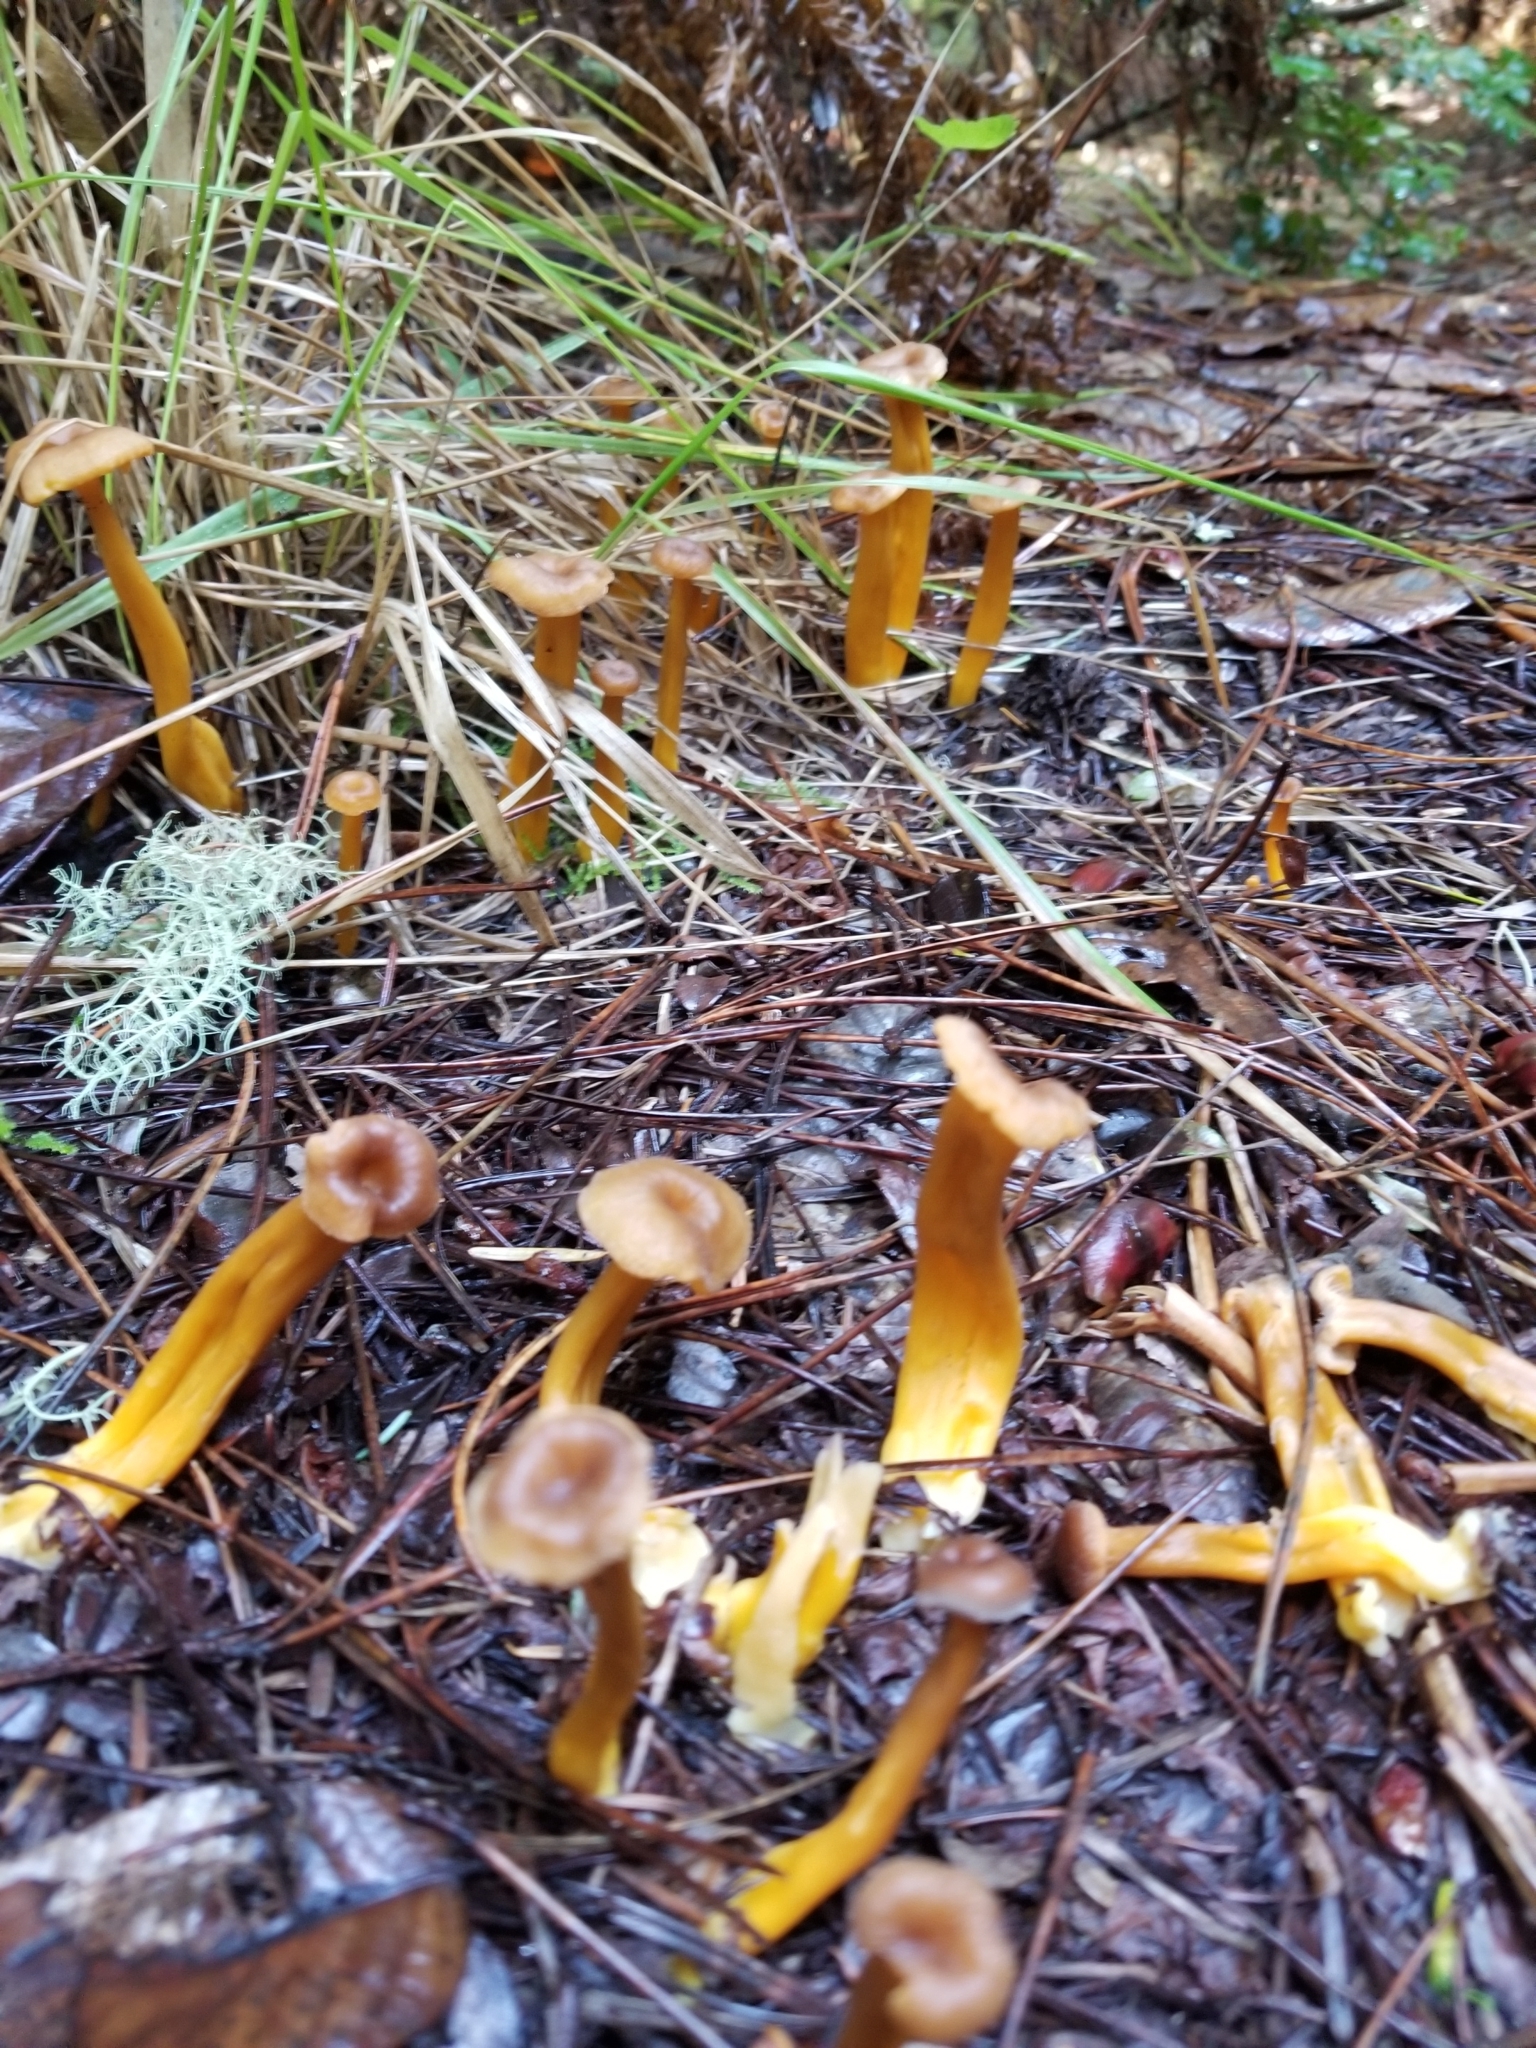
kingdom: Fungi
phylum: Basidiomycota
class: Agaricomycetes
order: Cantharellales
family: Hydnaceae
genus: Craterellus
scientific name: Craterellus tubaeformis
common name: Yellowfoot
